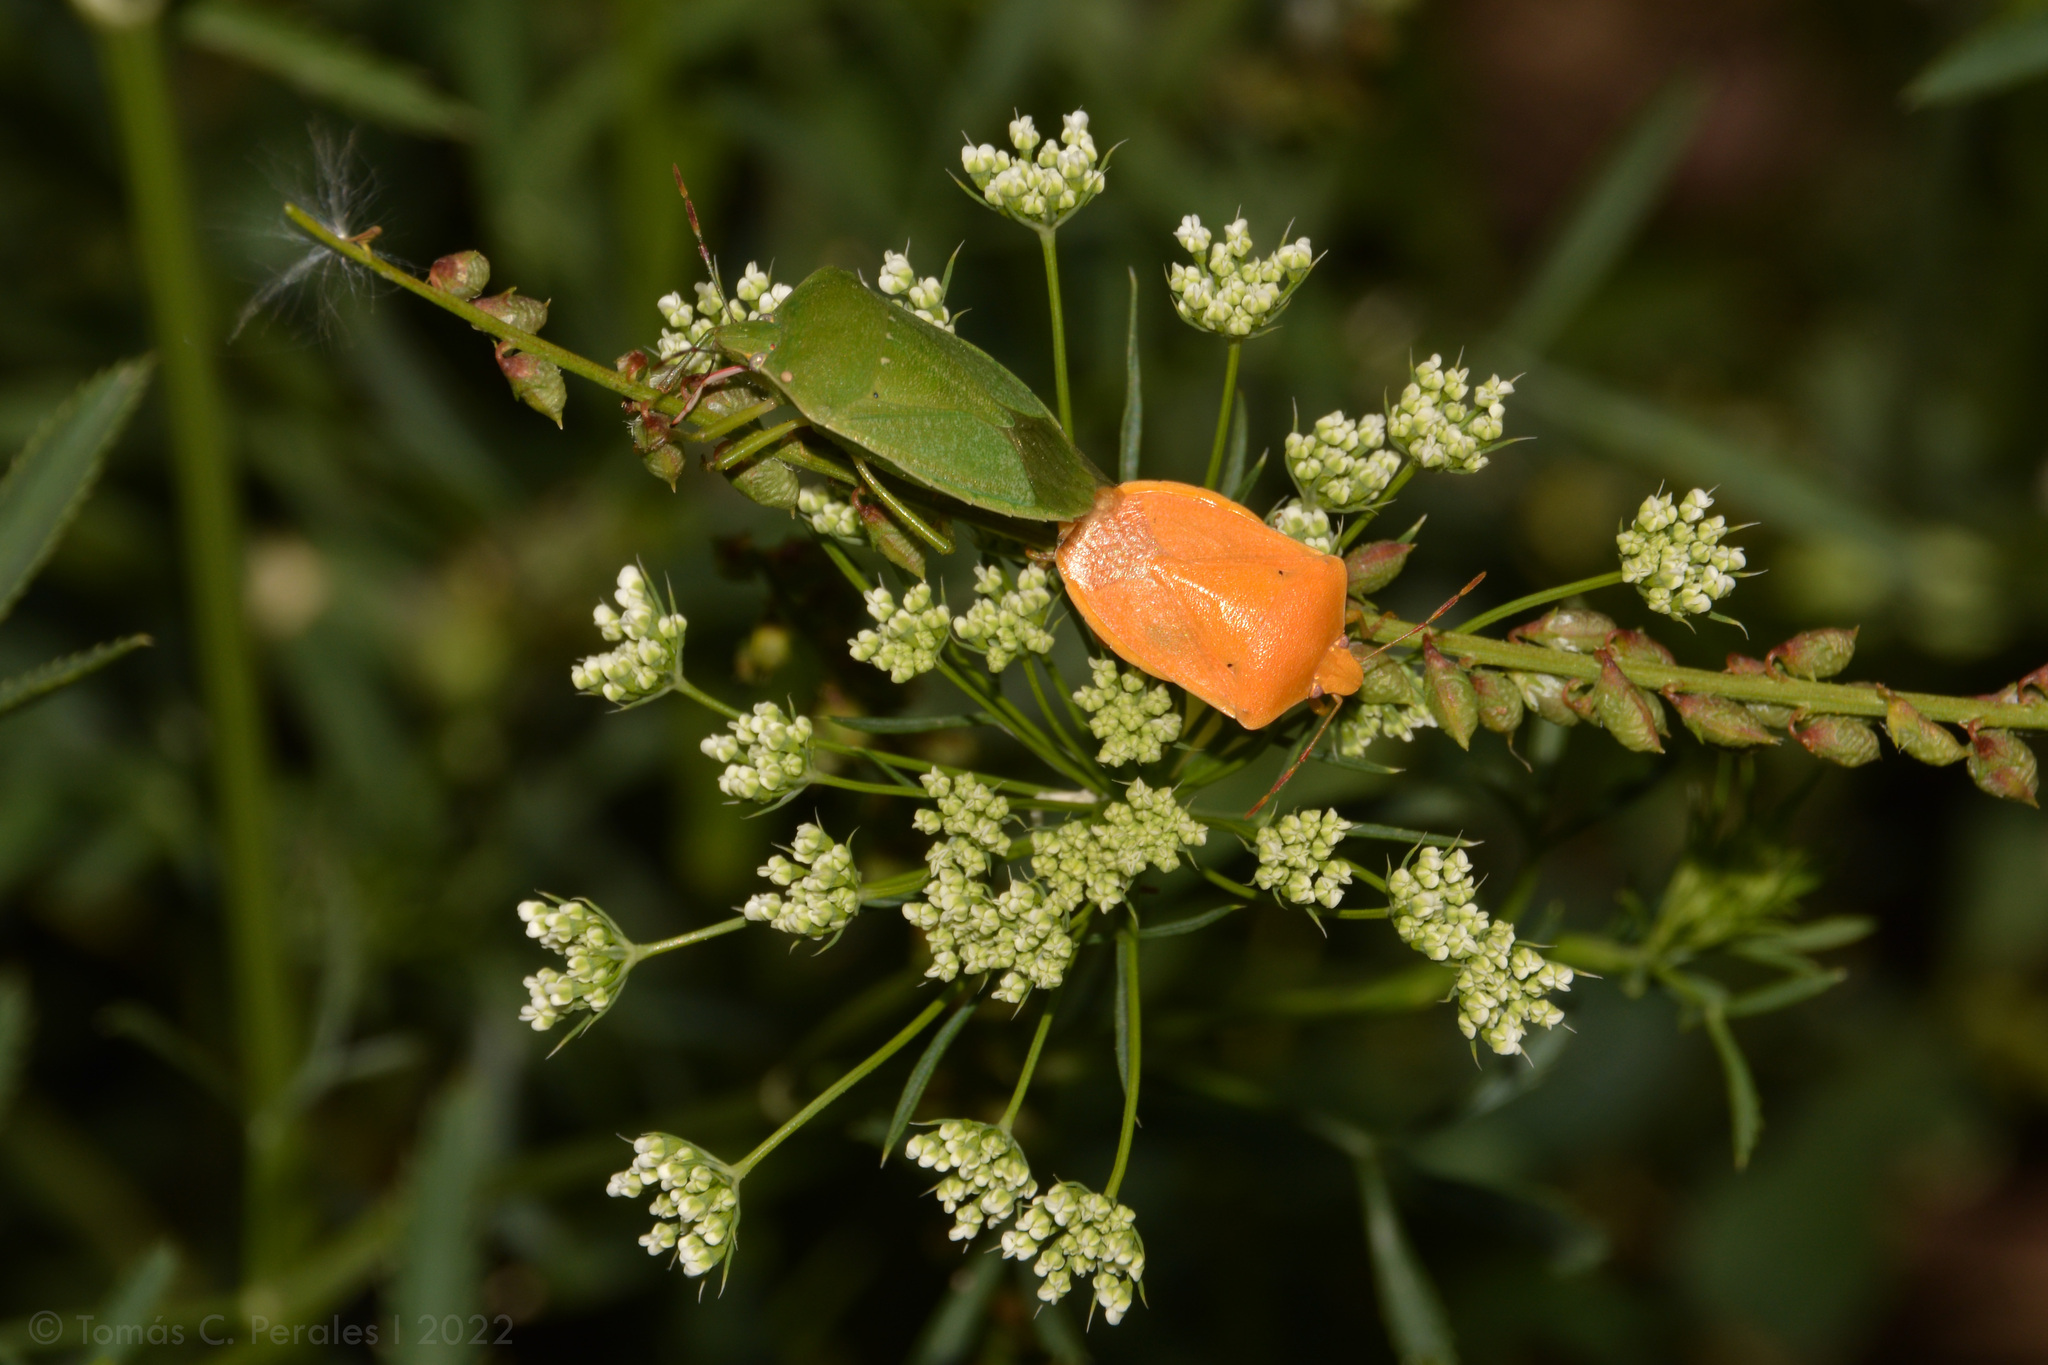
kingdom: Animalia
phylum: Arthropoda
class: Insecta
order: Hemiptera
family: Pentatomidae
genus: Nezara
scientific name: Nezara viridula
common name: Southern green stink bug
